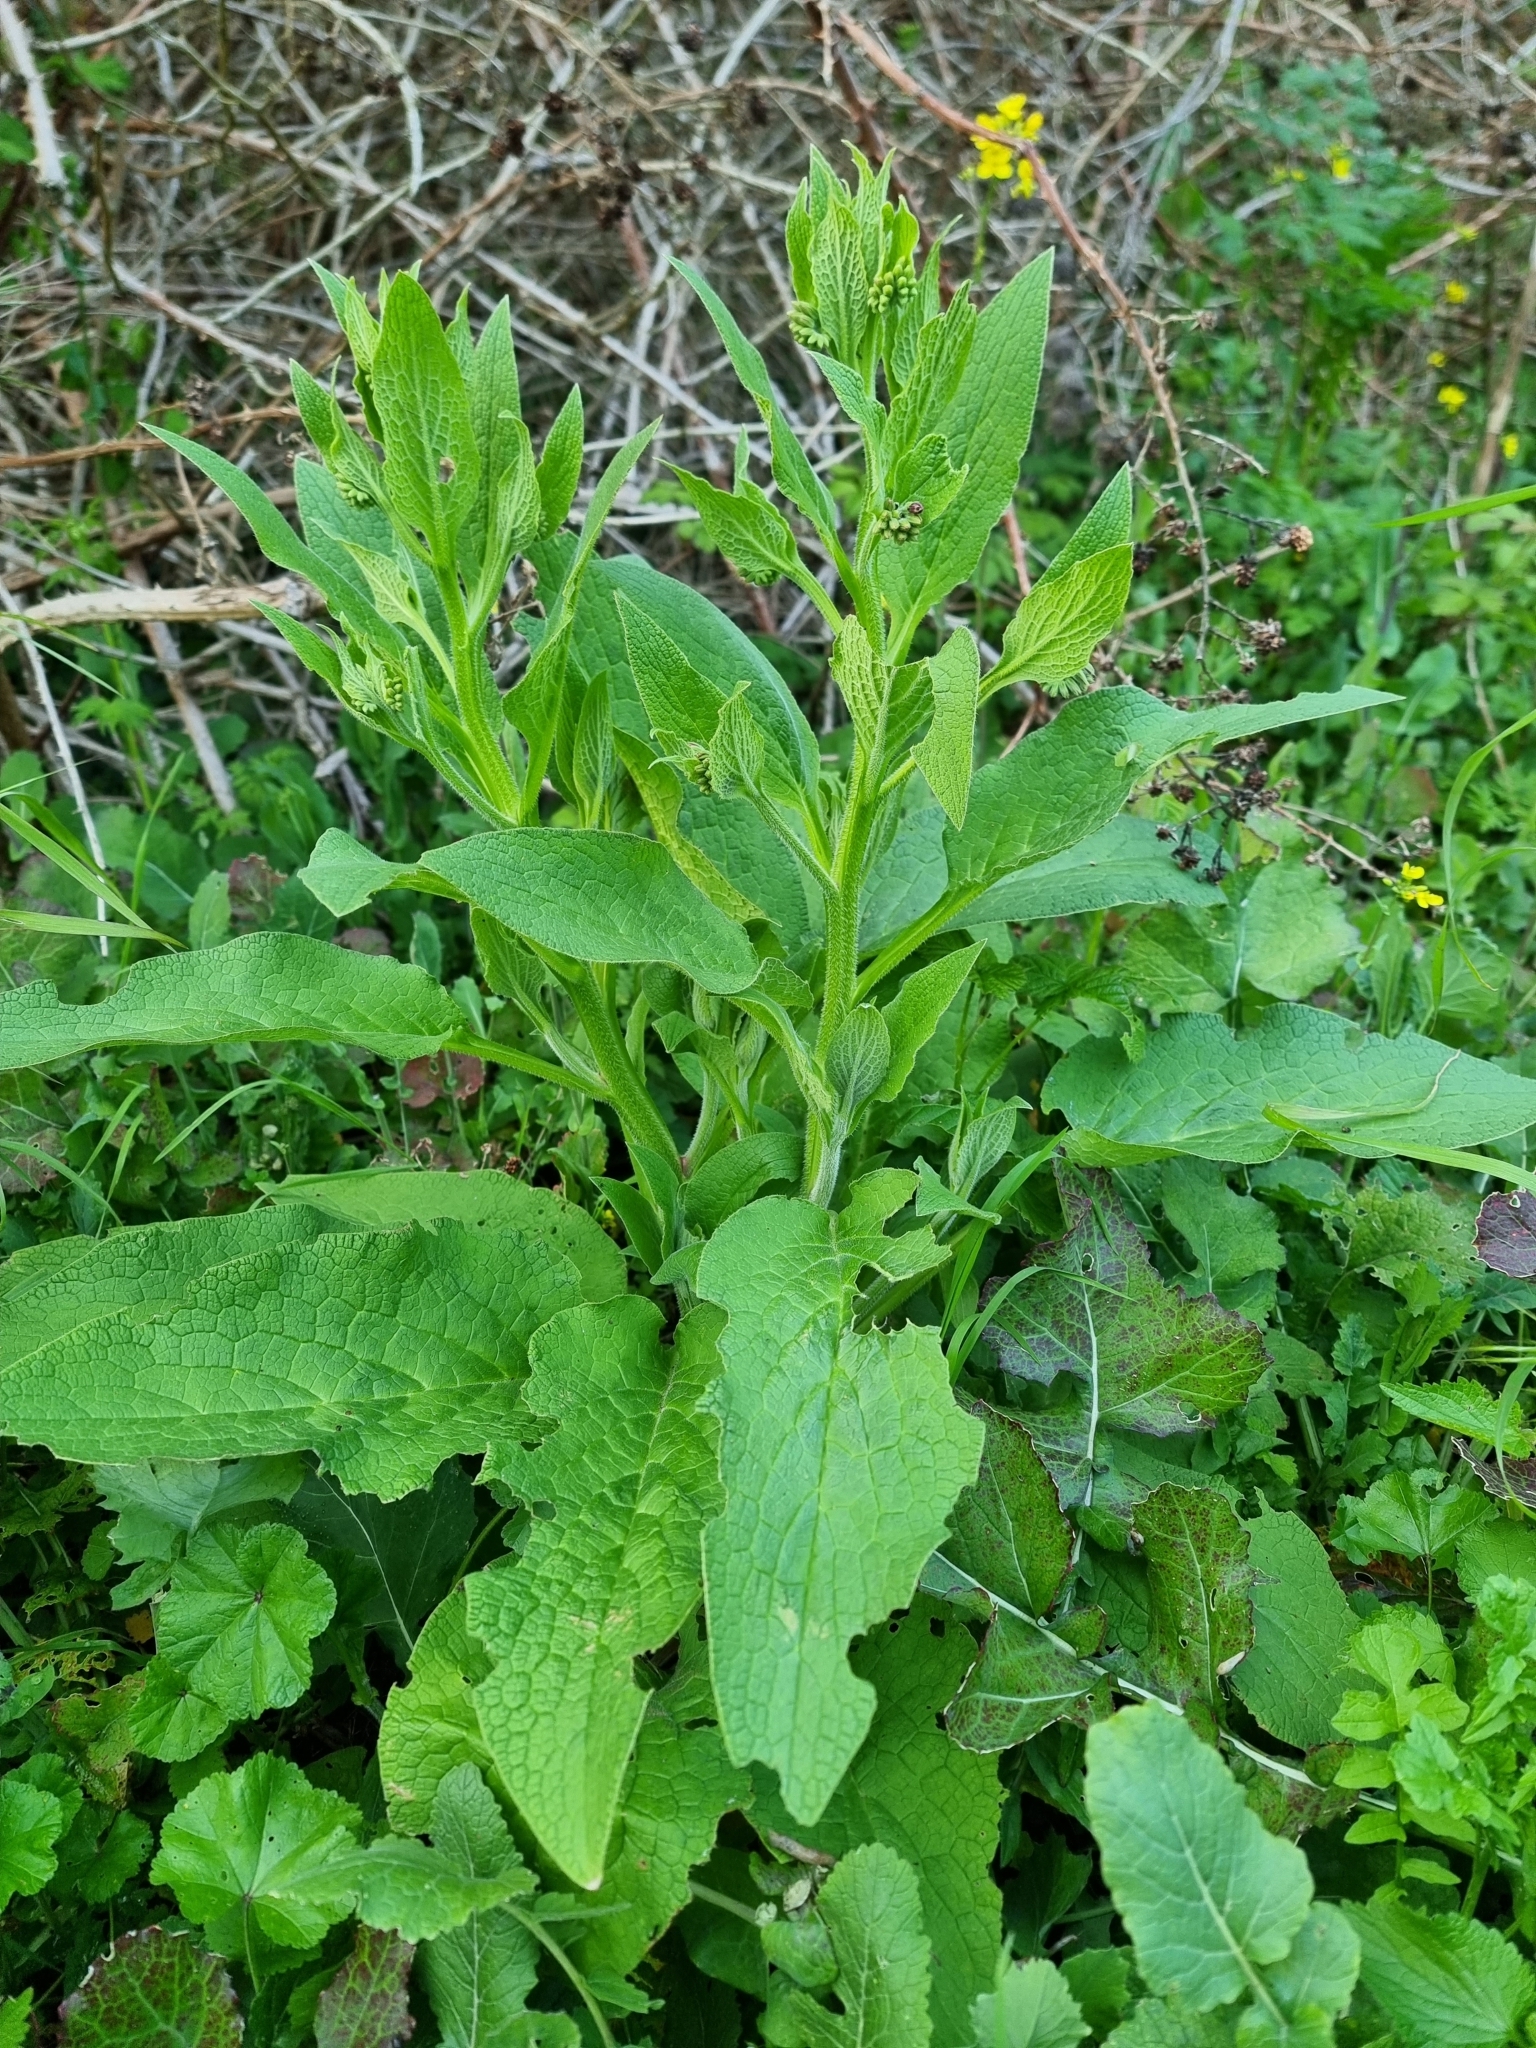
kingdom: Plantae
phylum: Tracheophyta
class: Magnoliopsida
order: Boraginales
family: Boraginaceae
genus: Symphytum
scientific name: Symphytum officinale
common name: Common comfrey
